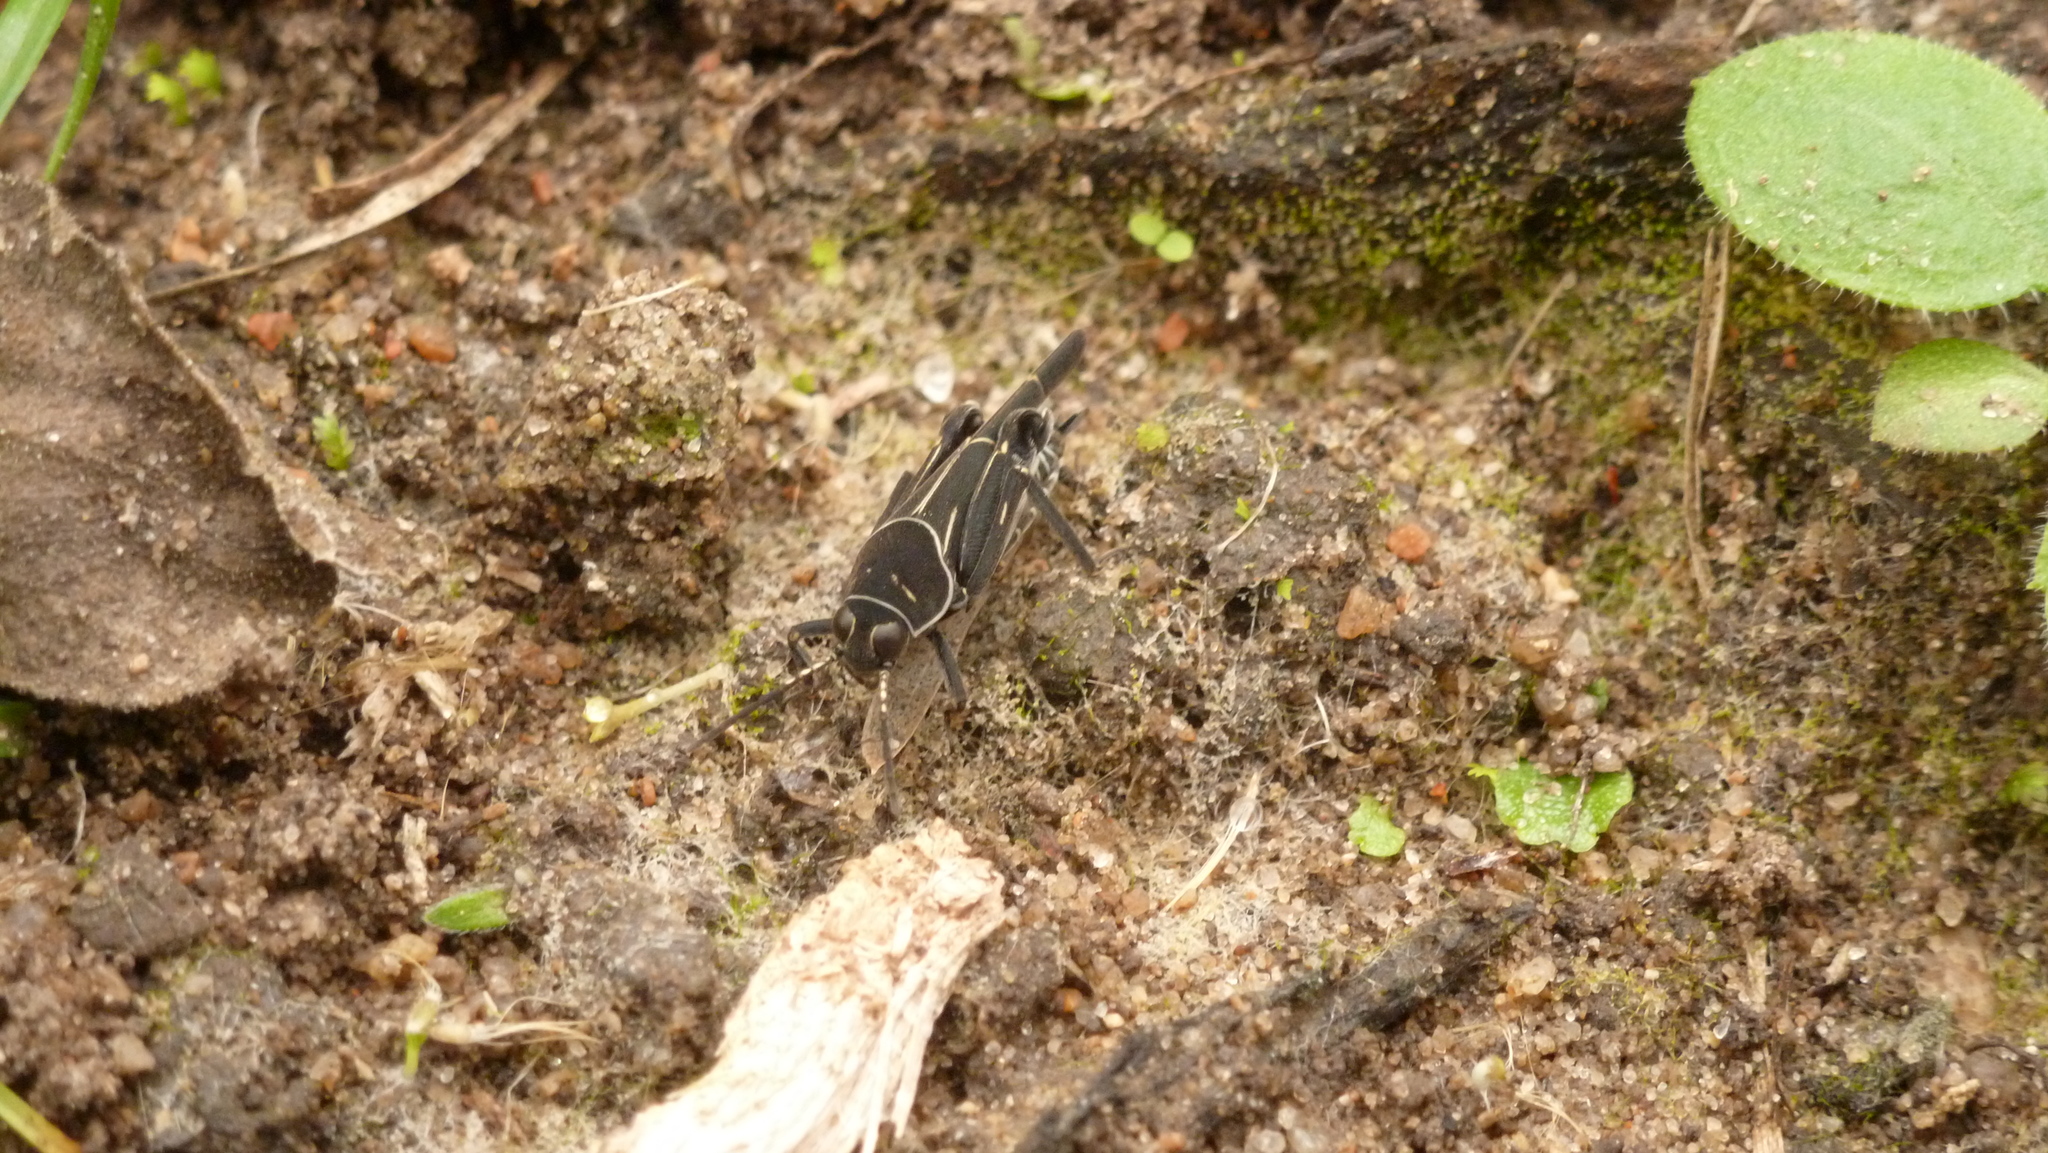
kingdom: Animalia
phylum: Arthropoda
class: Insecta
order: Orthoptera
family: Ripipterygidae
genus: Ripipteryx
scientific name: Ripipteryx notata
